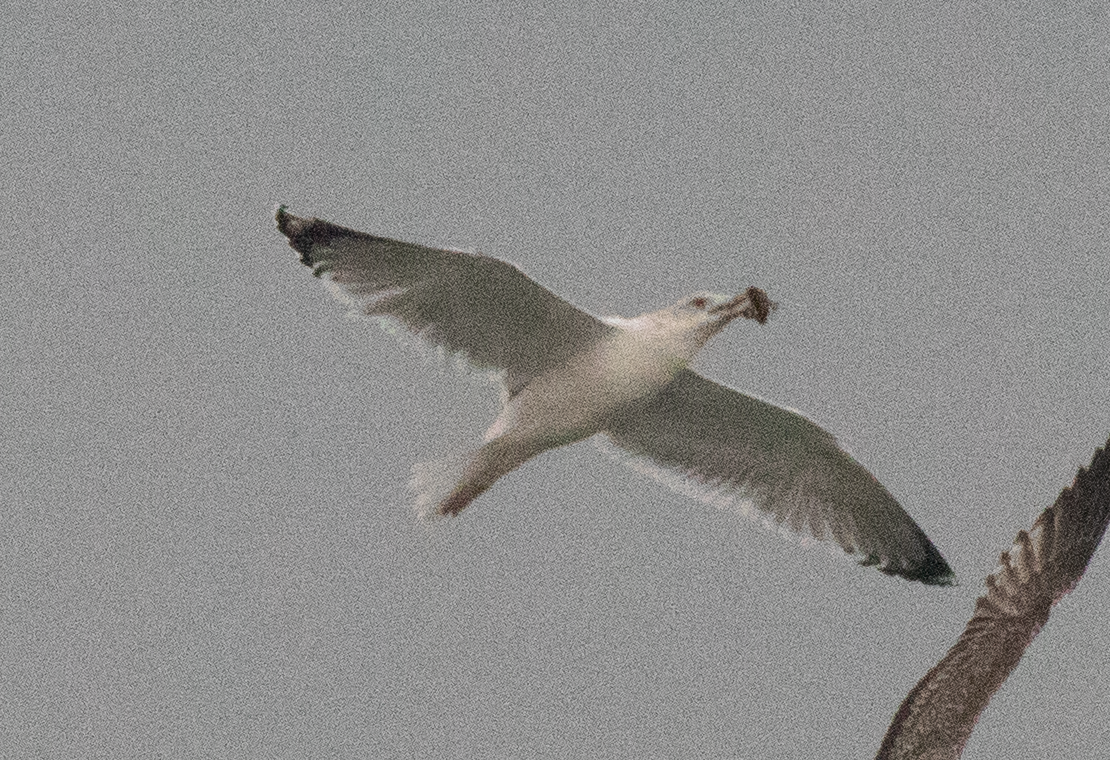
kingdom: Animalia
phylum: Chordata
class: Aves
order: Charadriiformes
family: Laridae
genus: Larus
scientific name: Larus cachinnans
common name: Caspian gull
